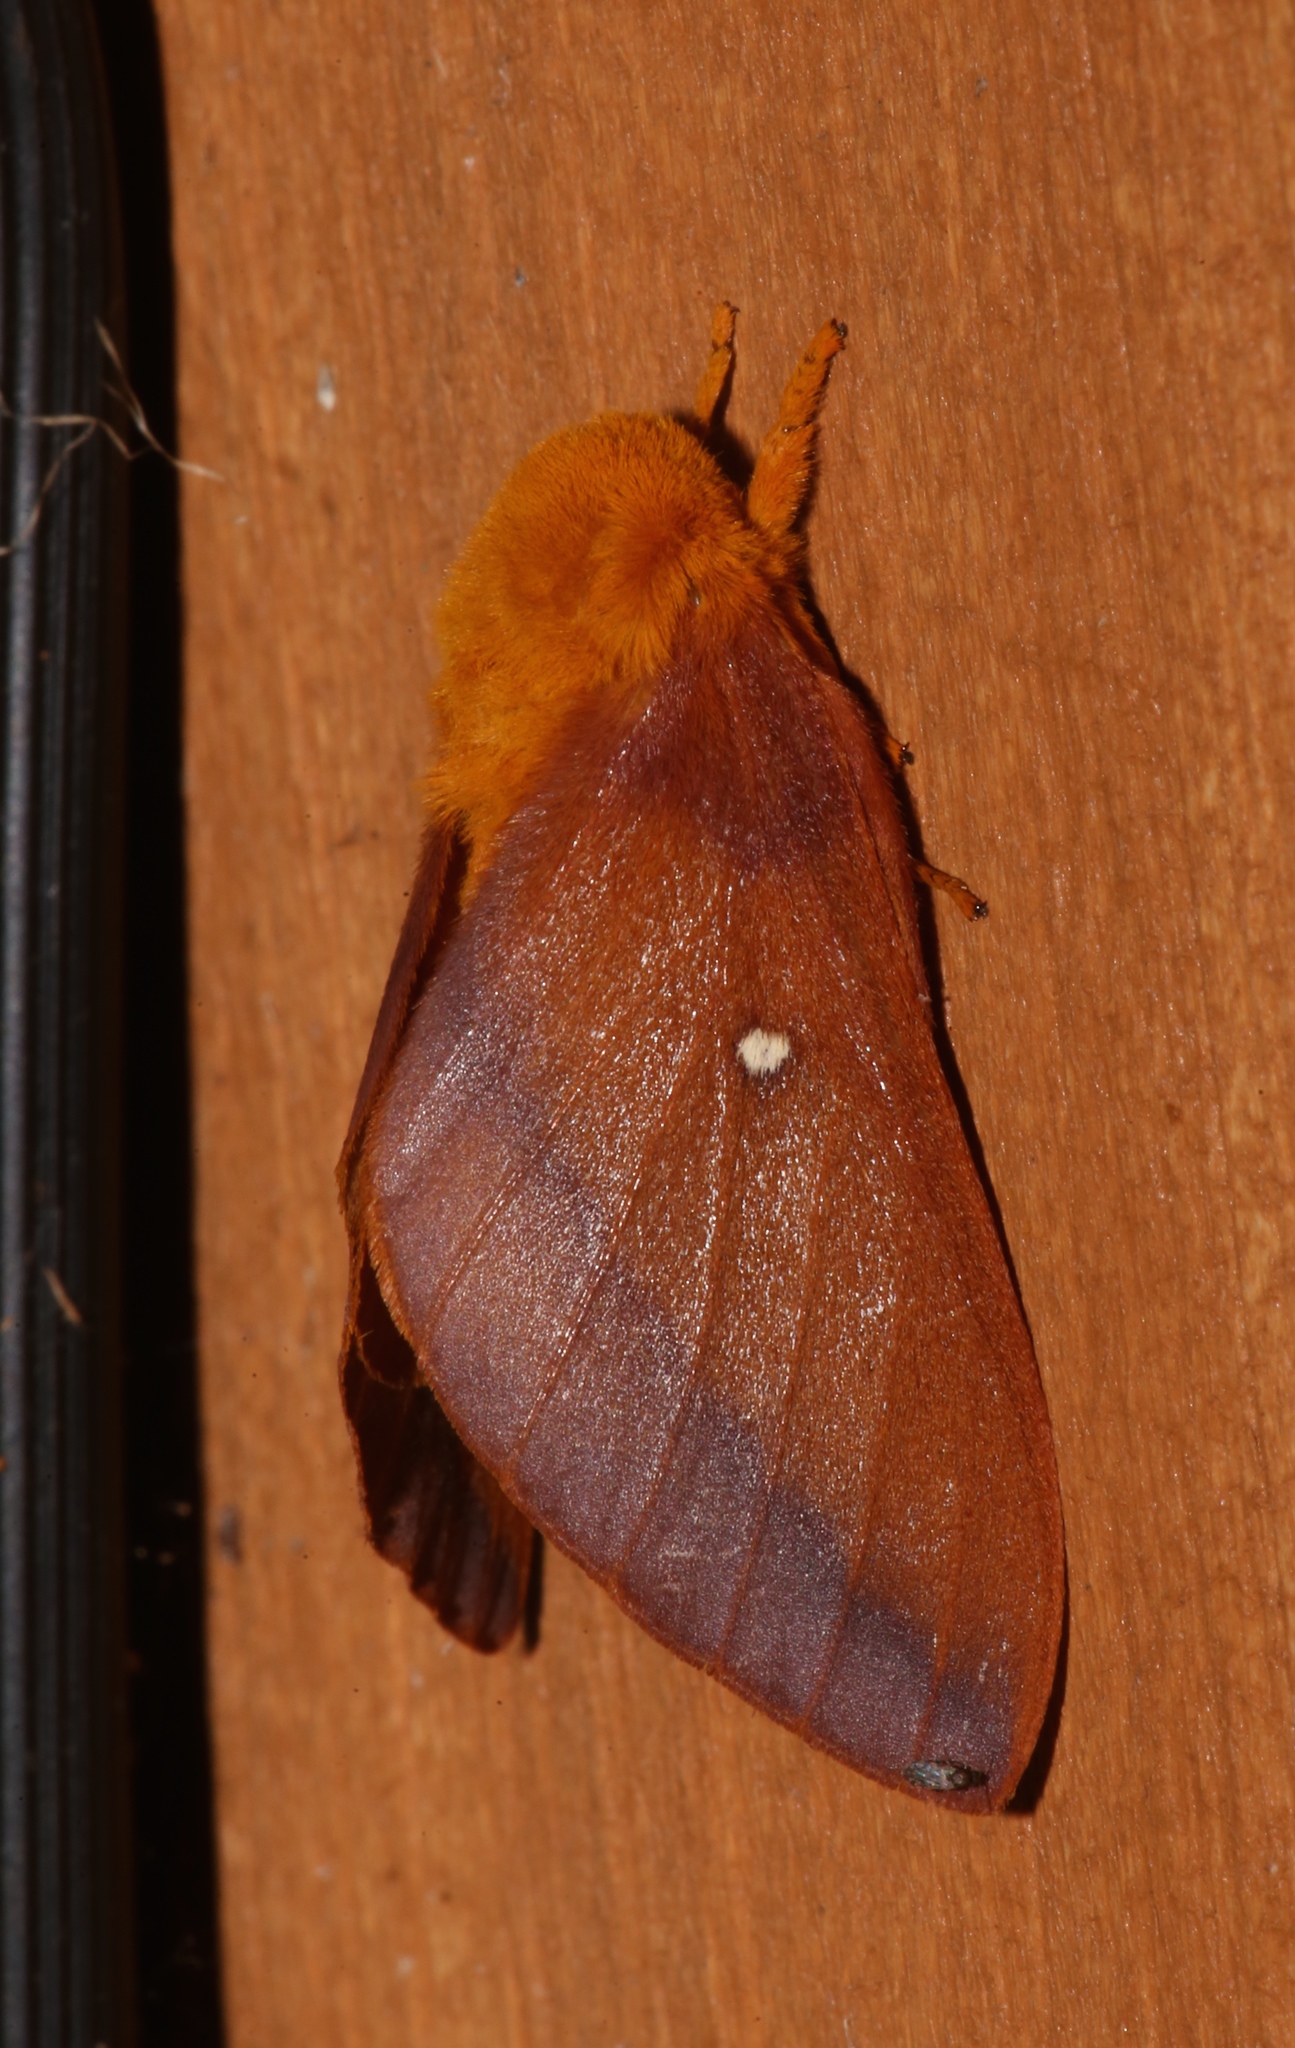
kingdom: Animalia
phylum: Arthropoda
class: Insecta
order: Lepidoptera
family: Saturniidae
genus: Anisota
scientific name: Anisota virginiensis
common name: Pink striped oakworm moth
